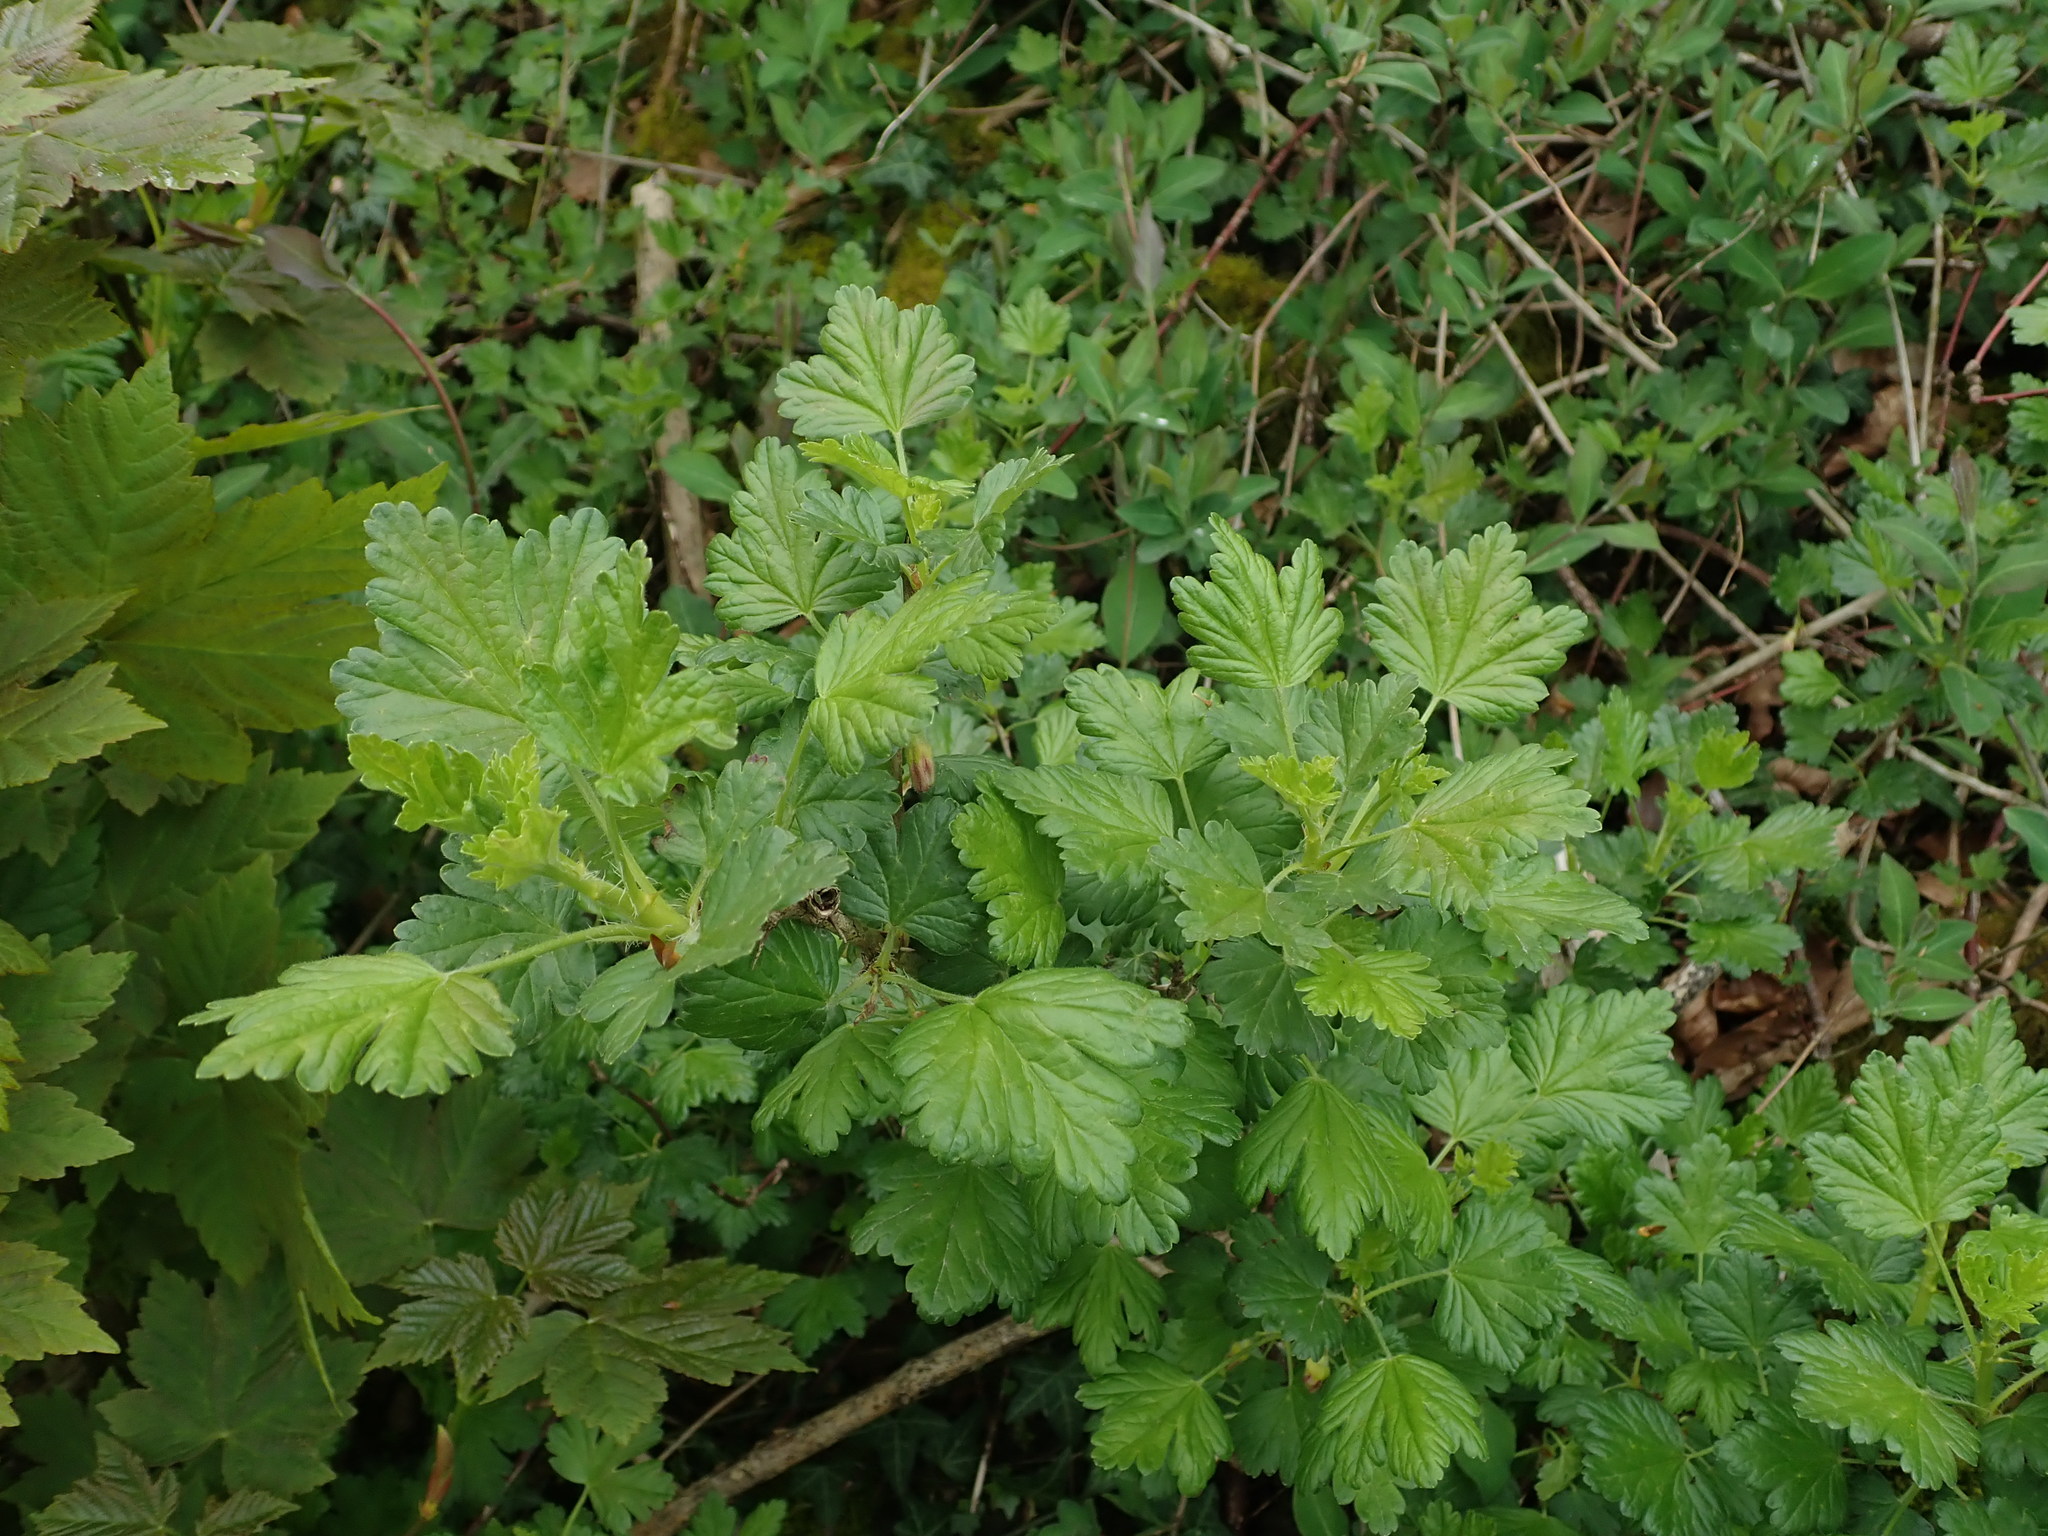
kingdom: Plantae
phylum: Tracheophyta
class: Magnoliopsida
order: Saxifragales
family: Grossulariaceae
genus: Ribes
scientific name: Ribes uva-crispa
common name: Gooseberry
